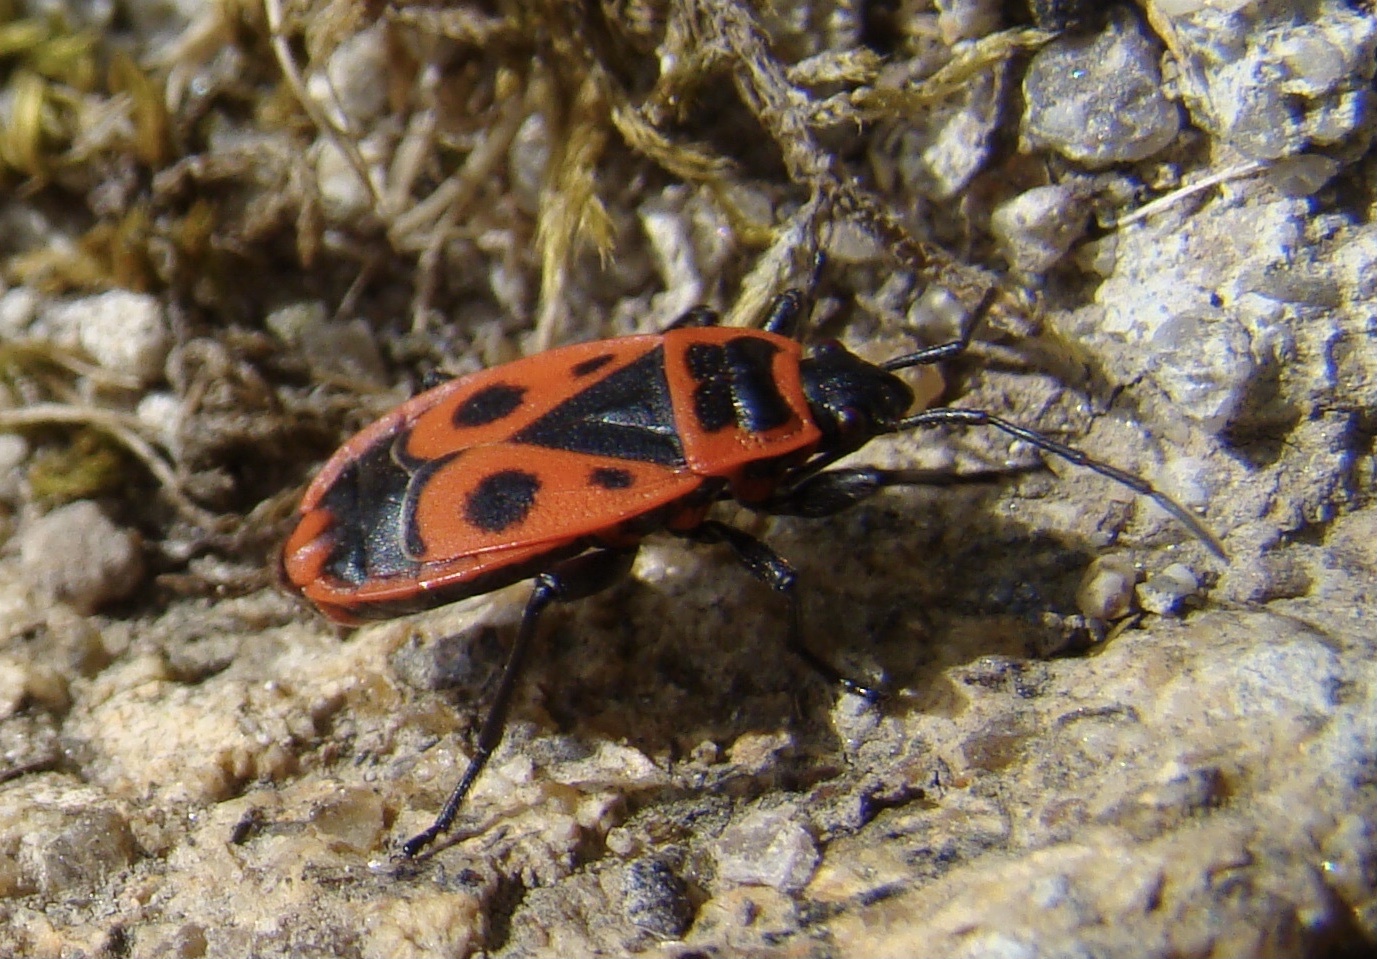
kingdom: Animalia
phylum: Arthropoda
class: Insecta
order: Hemiptera
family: Pyrrhocoridae
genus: Pyrrhocoris
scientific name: Pyrrhocoris apterus
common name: Firebug
